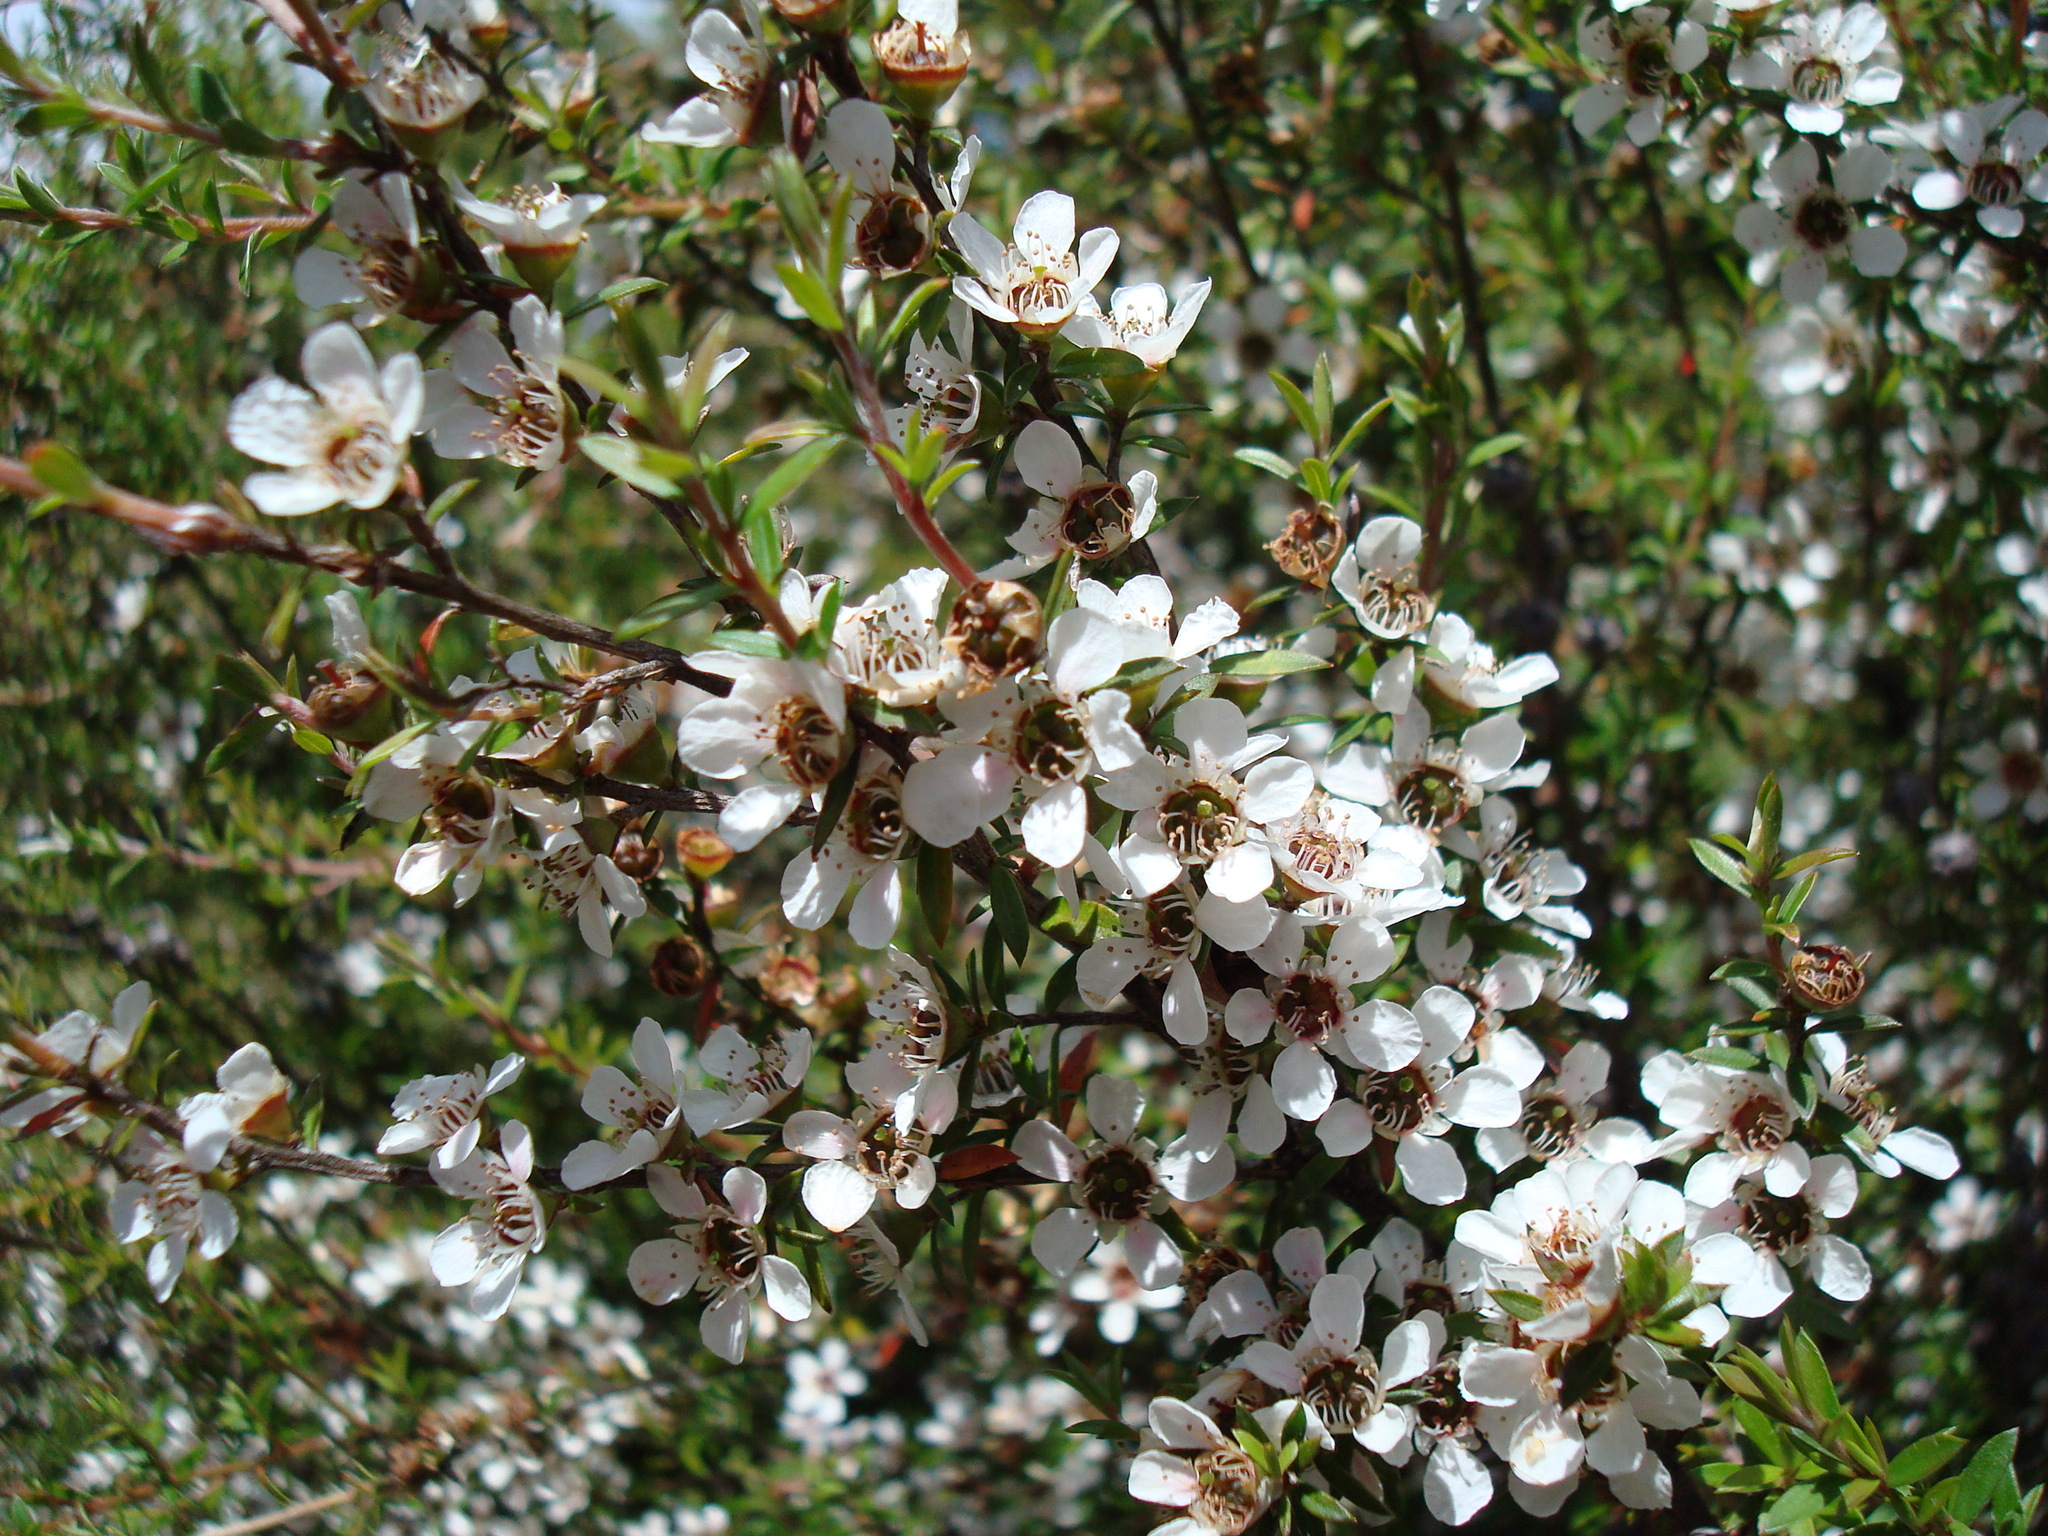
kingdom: Plantae
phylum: Tracheophyta
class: Magnoliopsida
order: Myrtales
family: Myrtaceae
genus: Leptospermum
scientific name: Leptospermum scoparium
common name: Broom tea-tree
